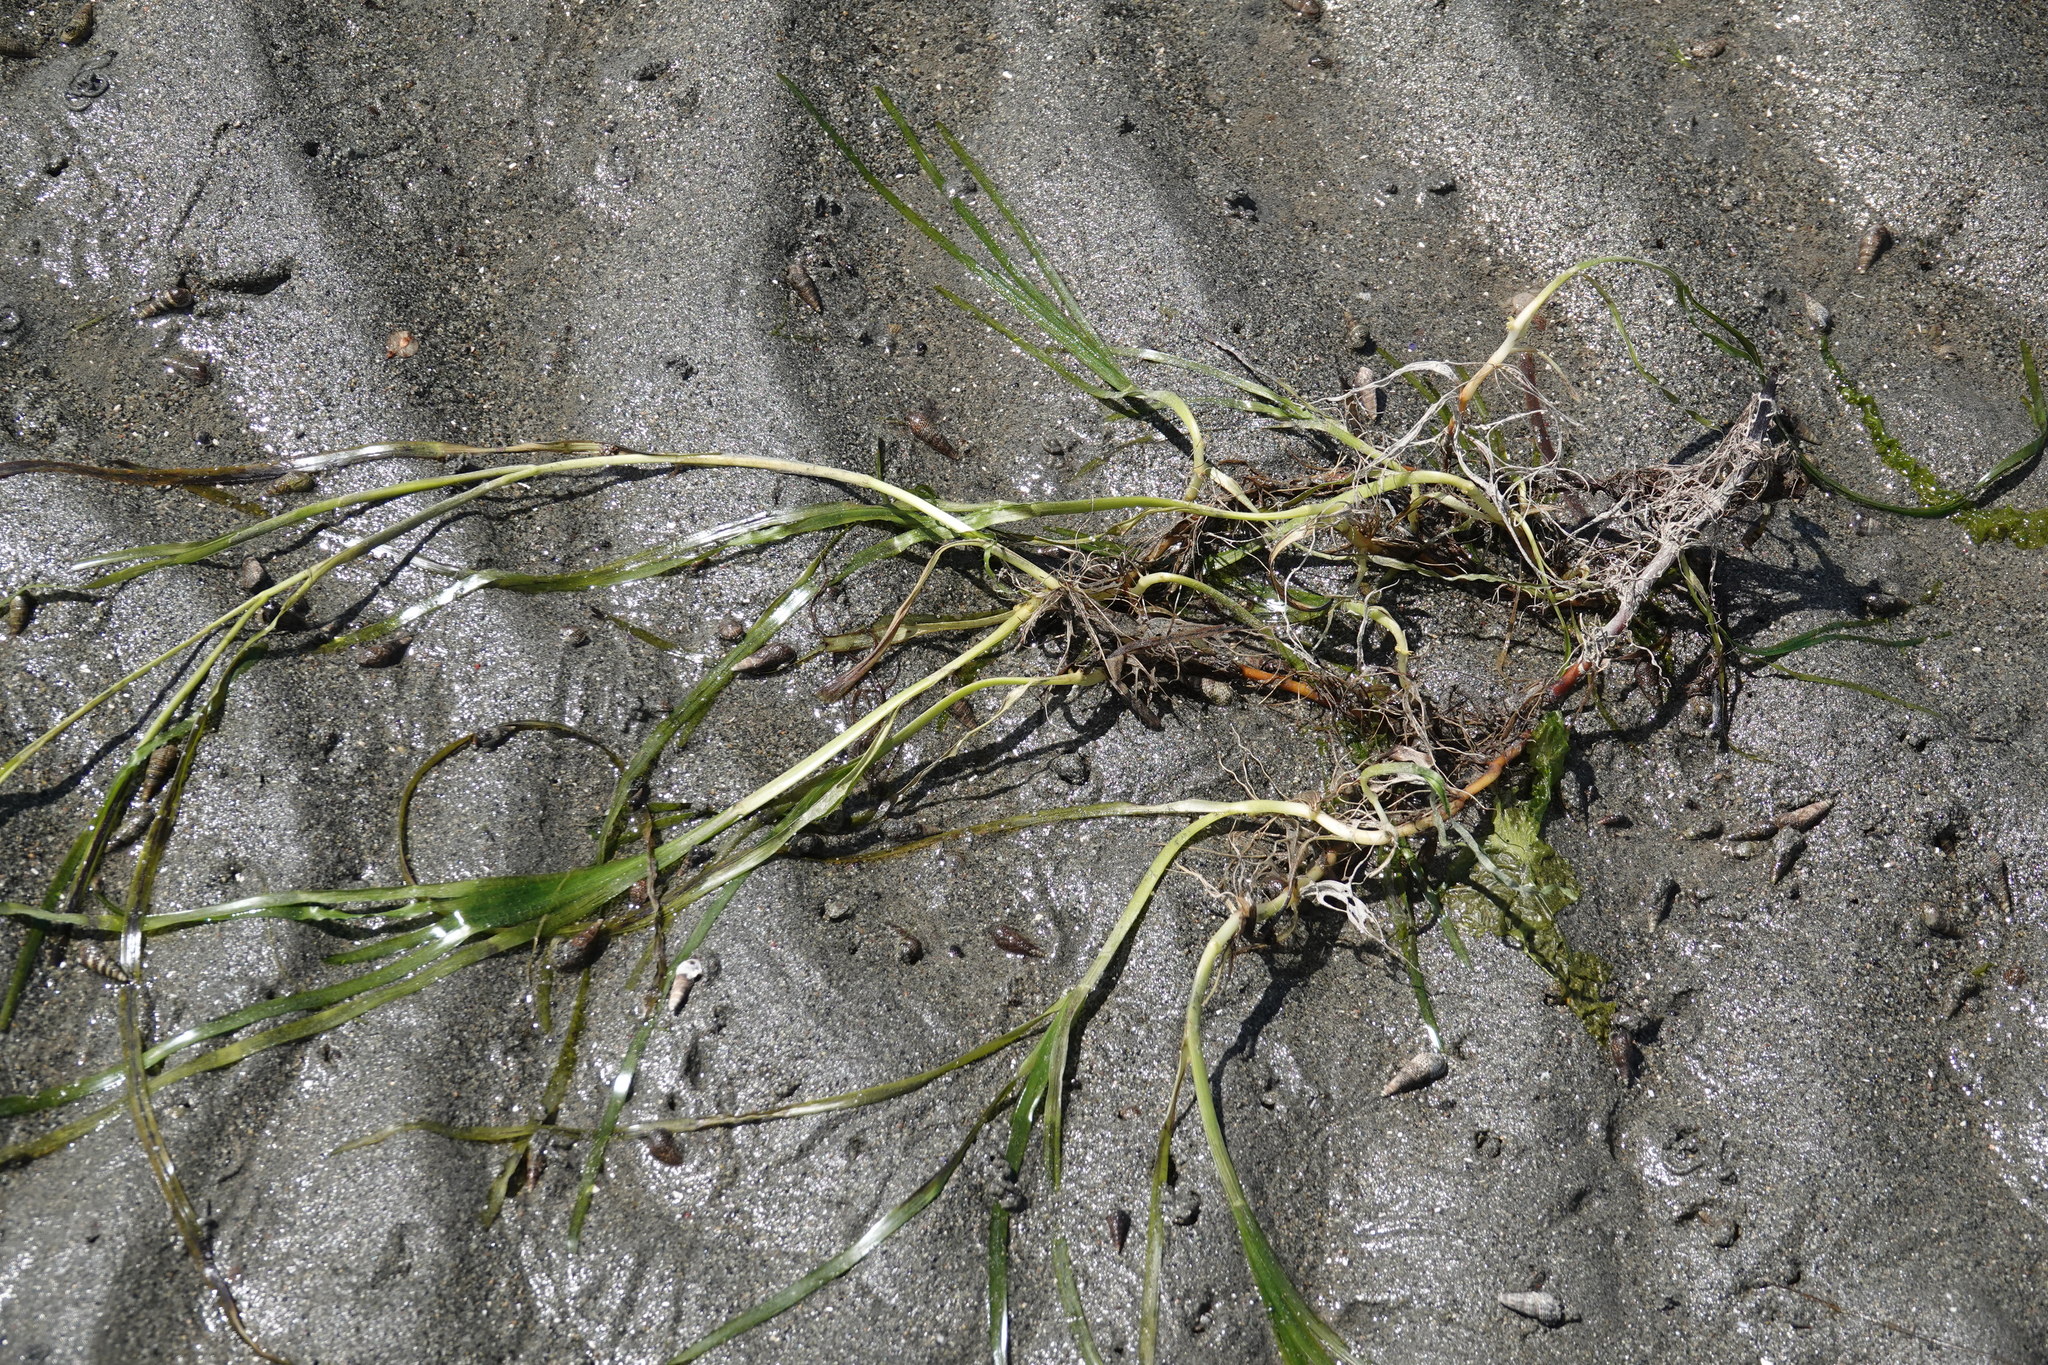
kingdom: Plantae
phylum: Tracheophyta
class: Liliopsida
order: Alismatales
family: Zosteraceae
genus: Zostera
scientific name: Zostera marina
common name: Eelgrass
